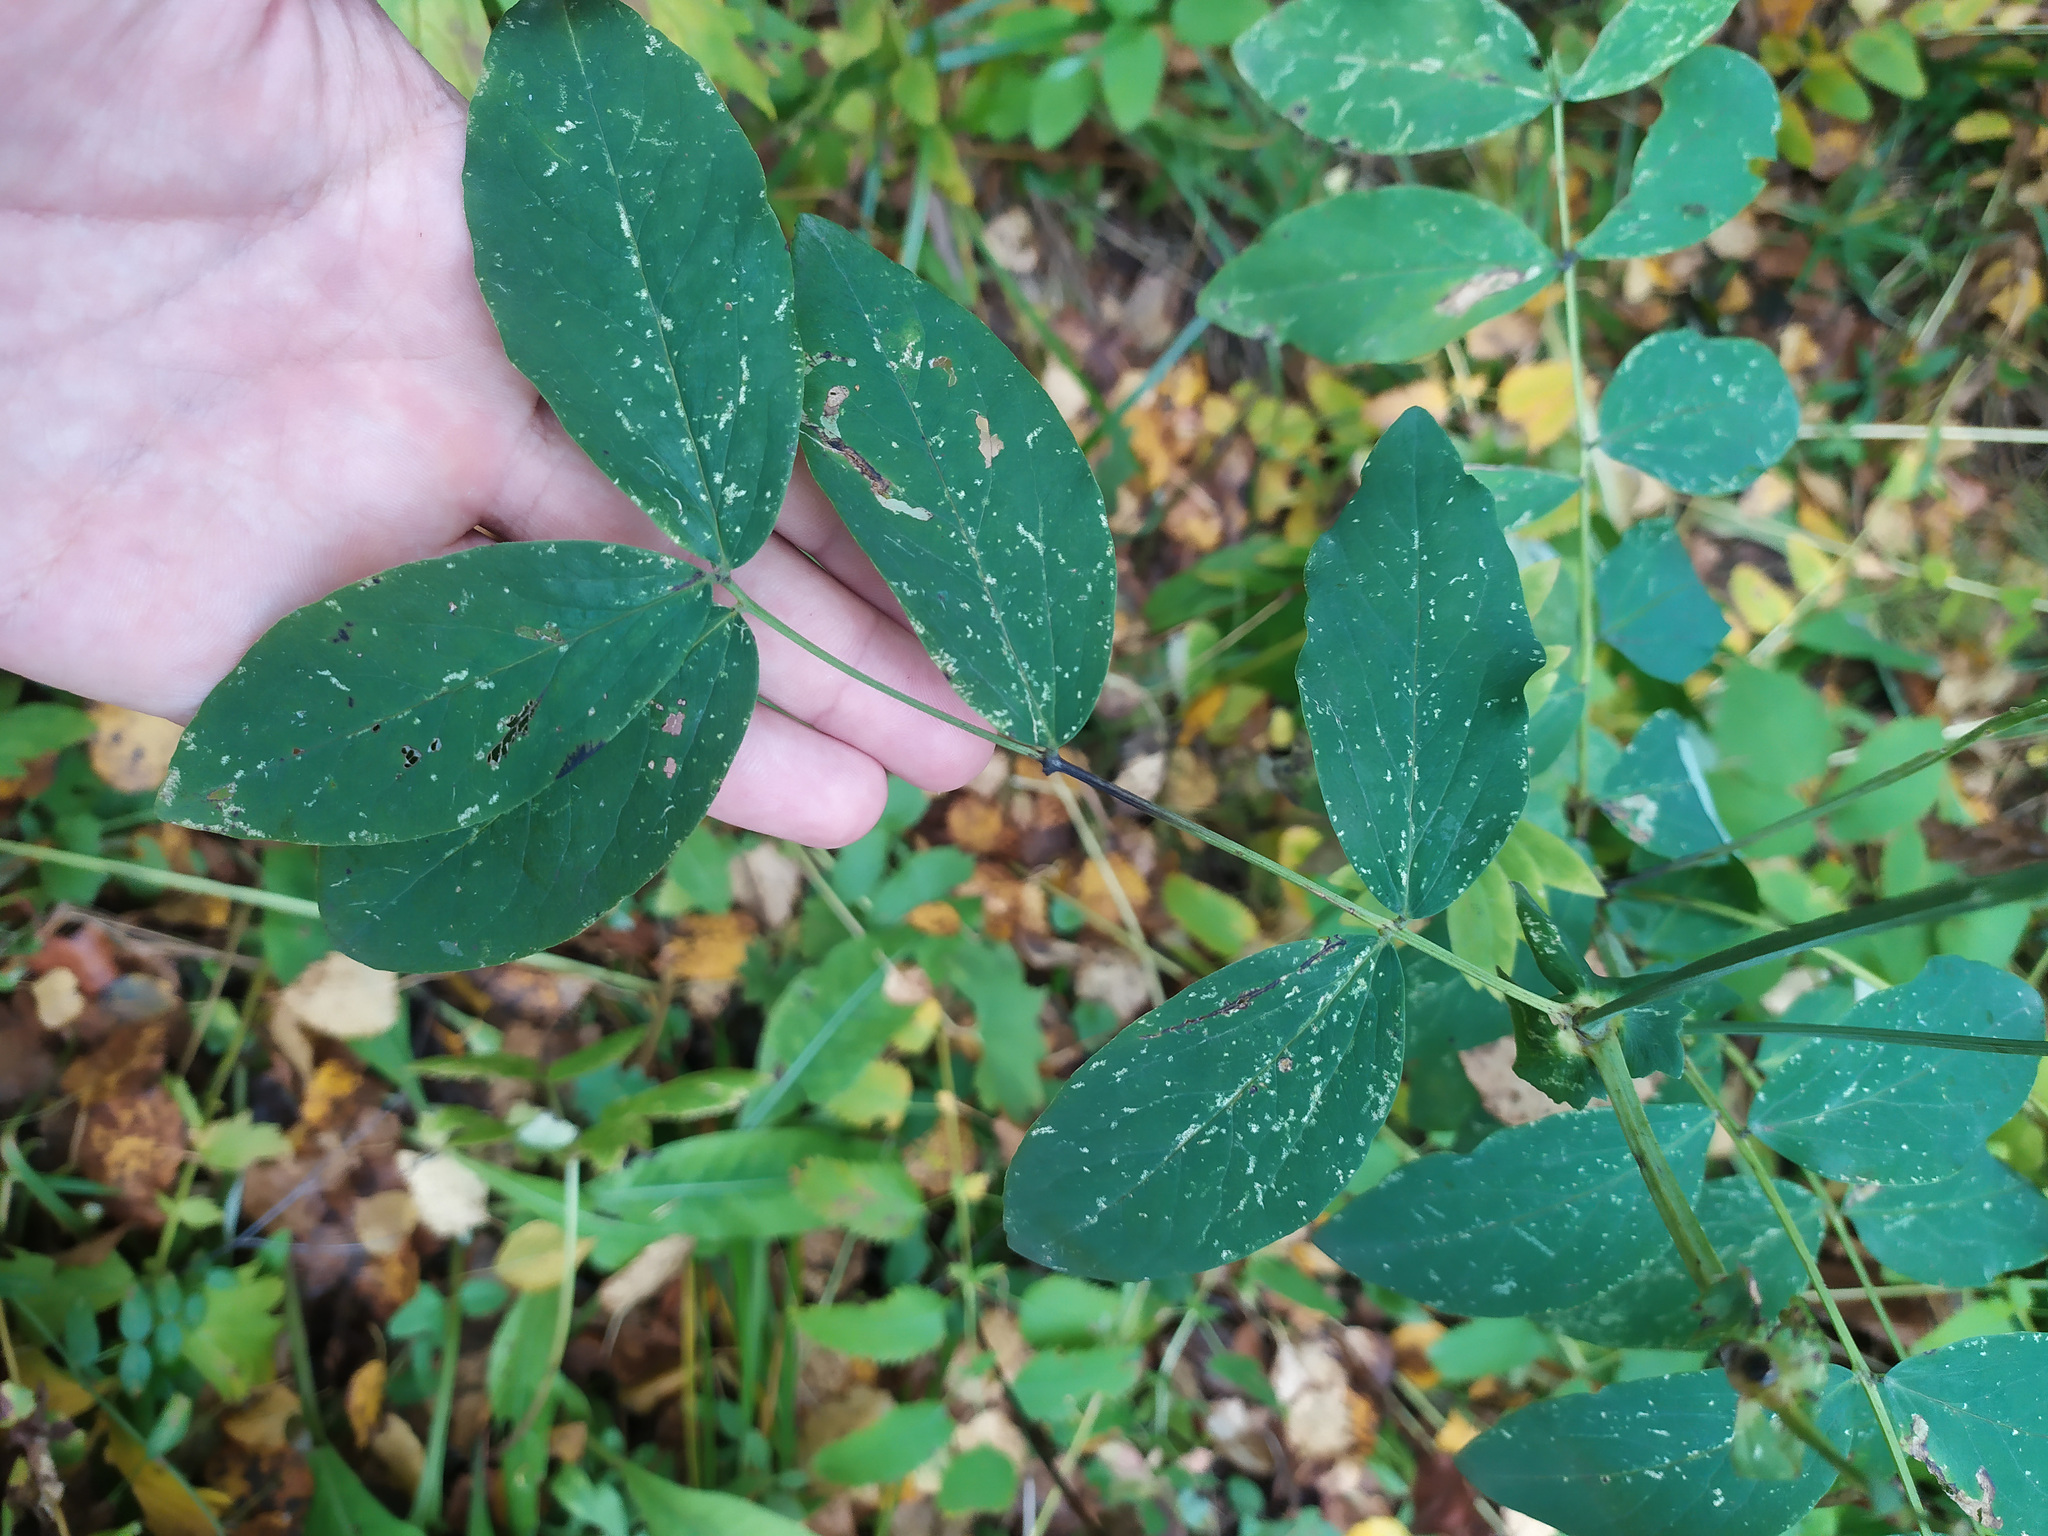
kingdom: Plantae
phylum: Tracheophyta
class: Magnoliopsida
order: Fabales
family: Fabaceae
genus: Lathyrus
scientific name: Lathyrus gmelinii
